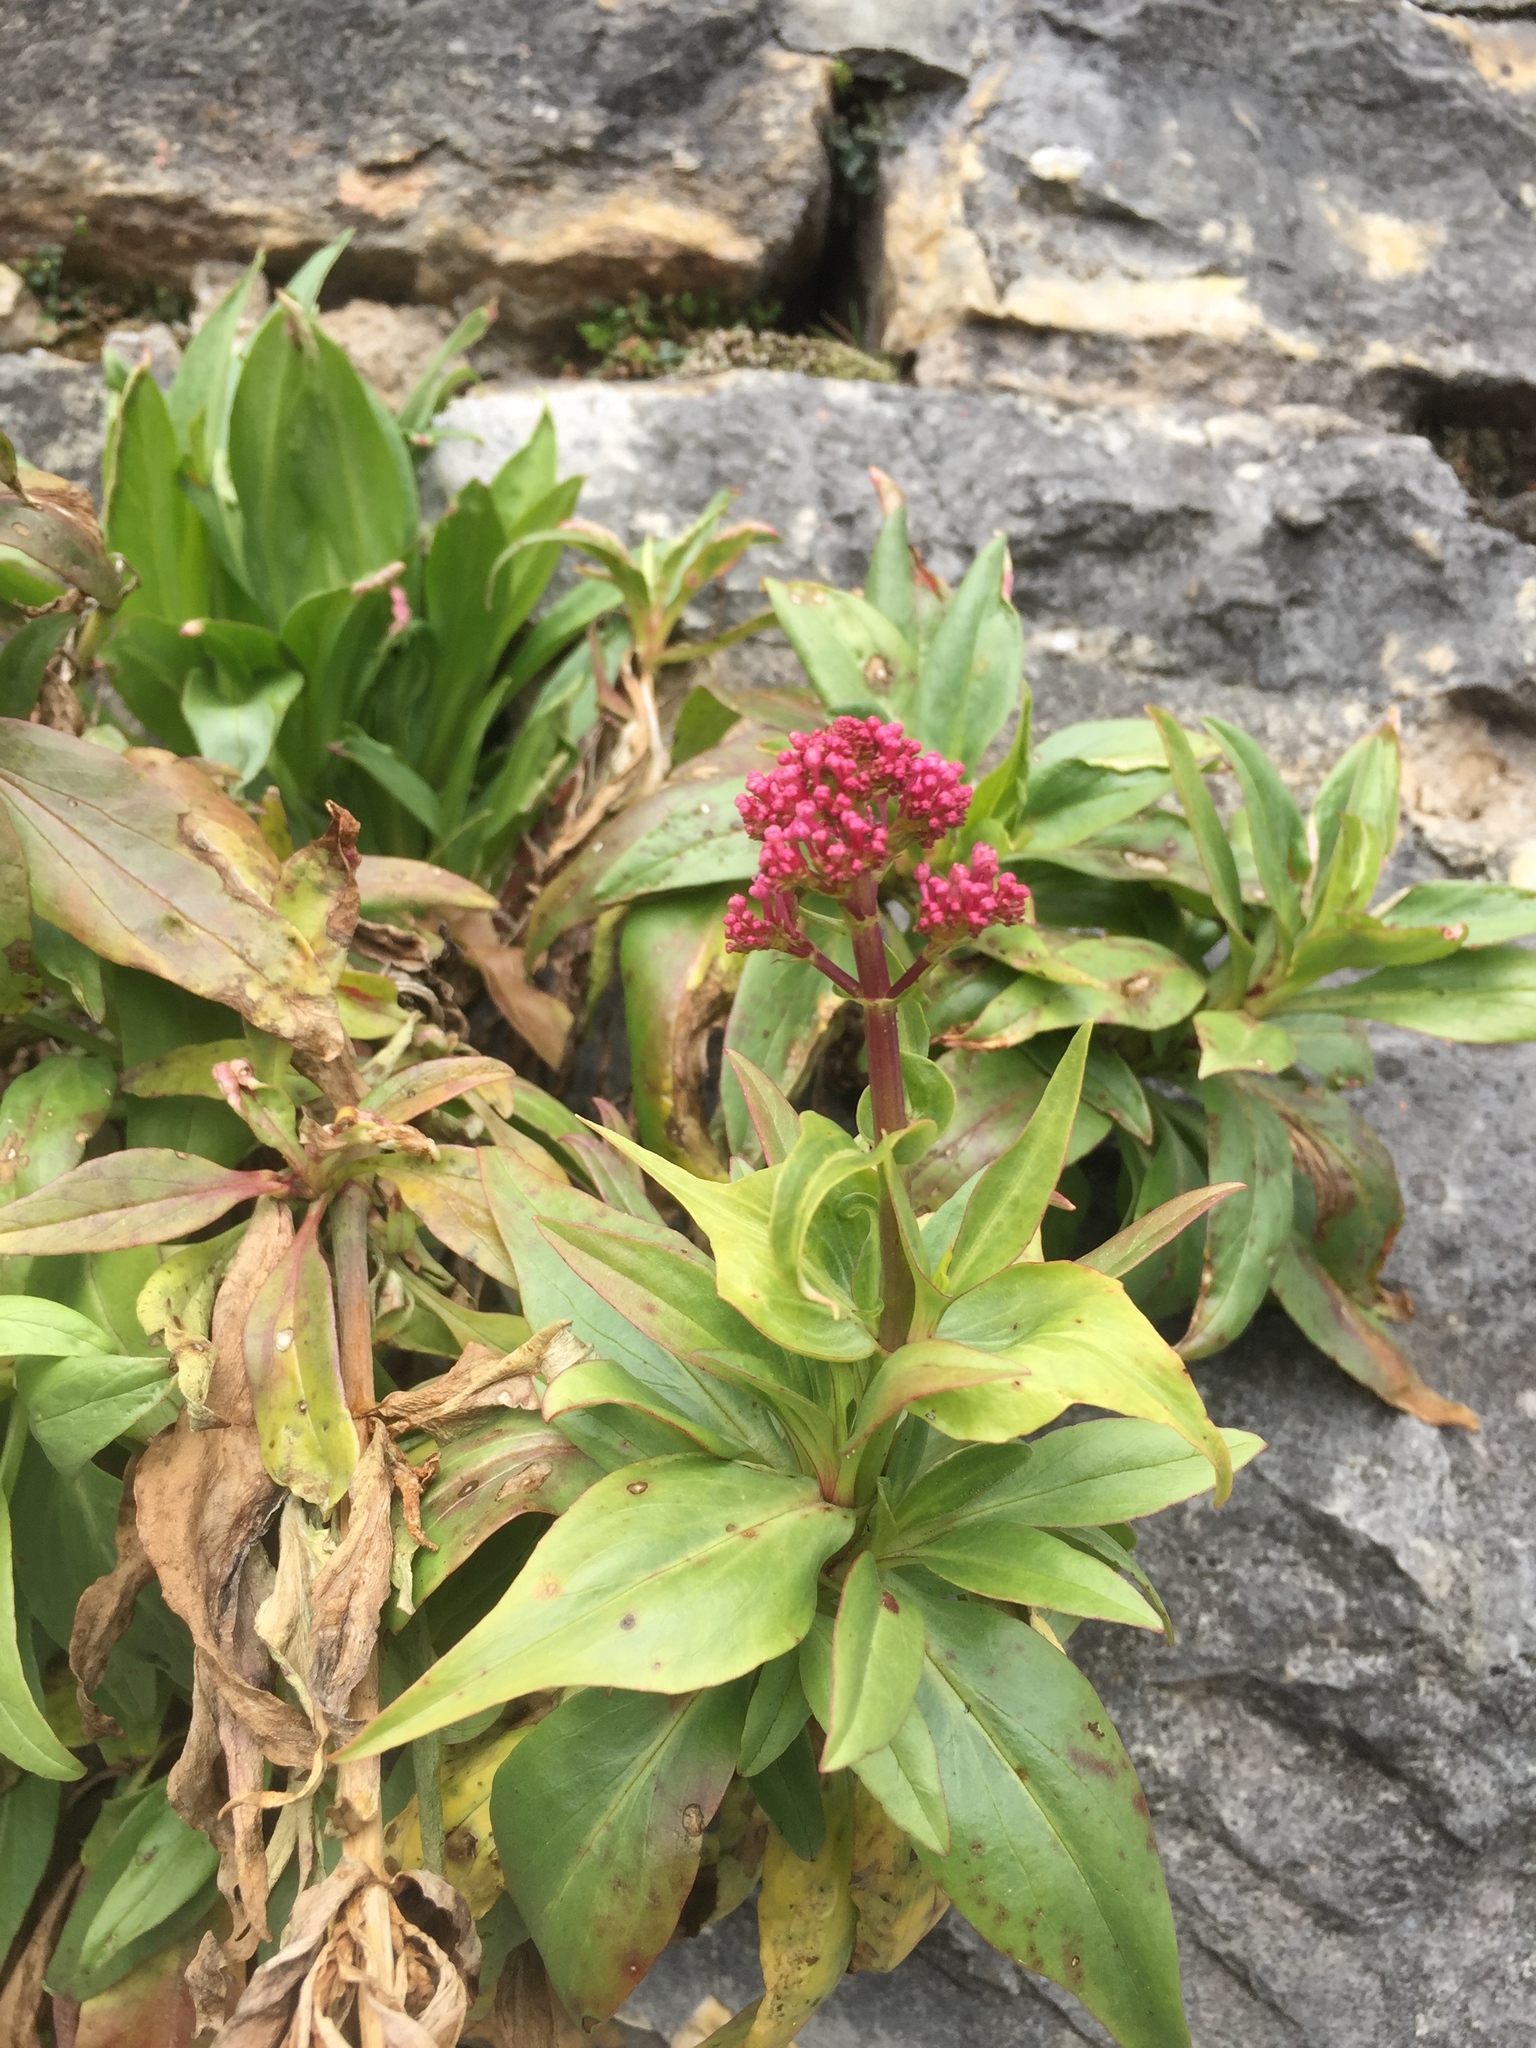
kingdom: Plantae
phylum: Tracheophyta
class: Magnoliopsida
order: Dipsacales
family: Caprifoliaceae
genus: Centranthus
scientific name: Centranthus ruber
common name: Red valerian
